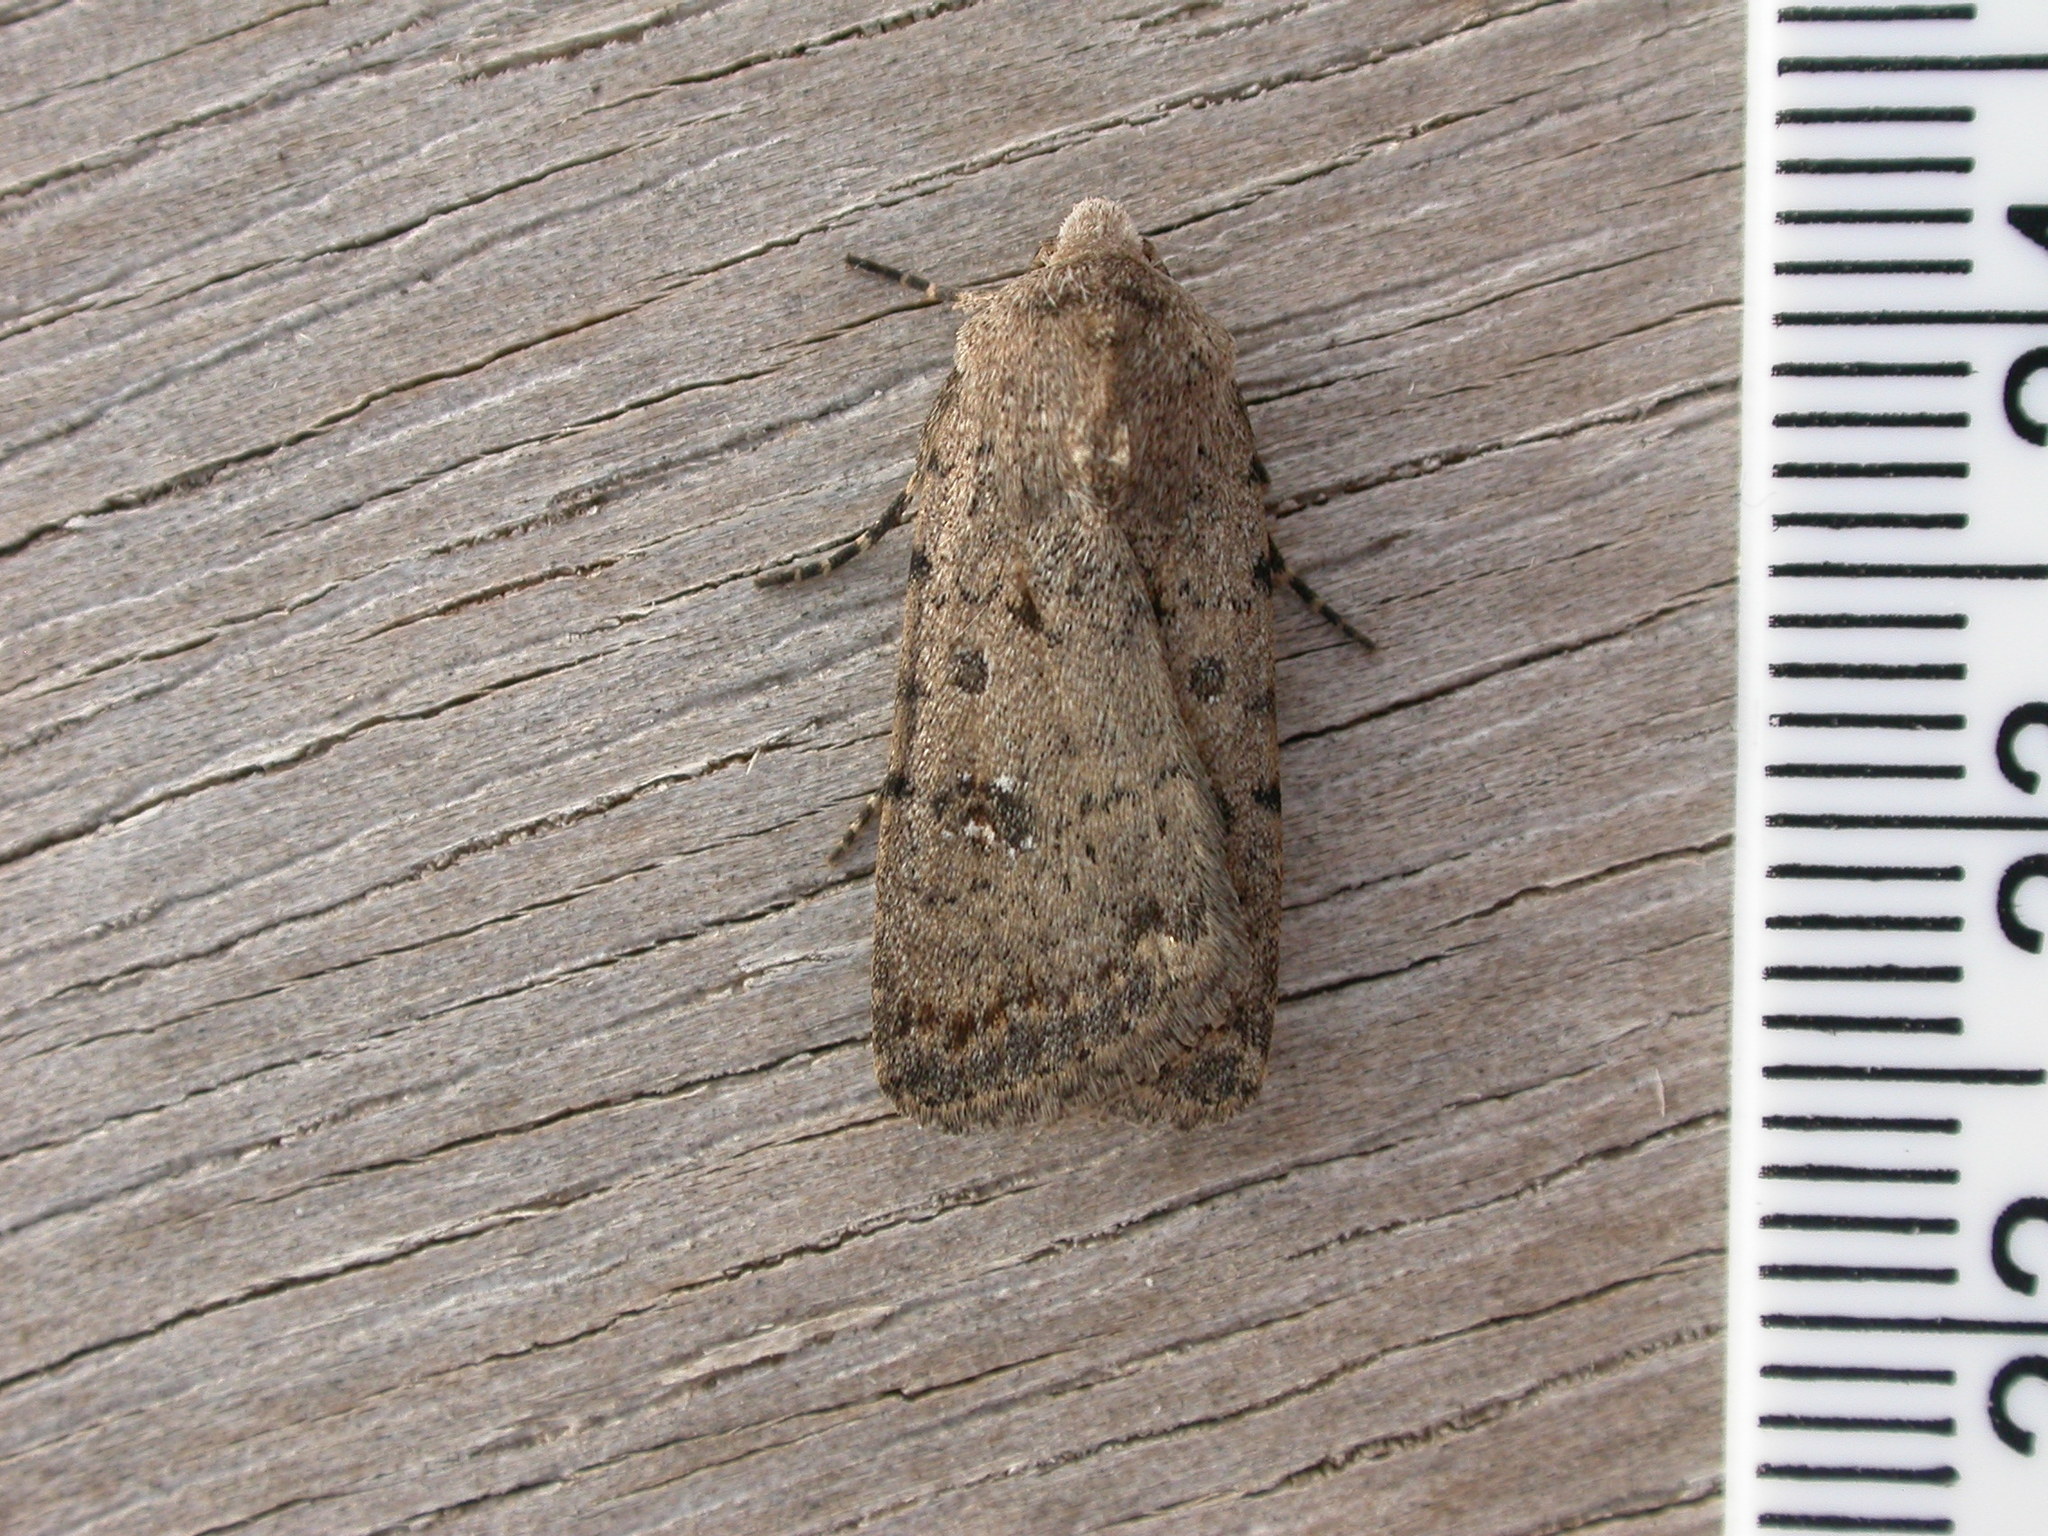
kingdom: Animalia
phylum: Arthropoda
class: Insecta
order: Lepidoptera
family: Noctuidae
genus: Caradrina
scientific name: Caradrina clavipalpis
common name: Pale mottled willow
